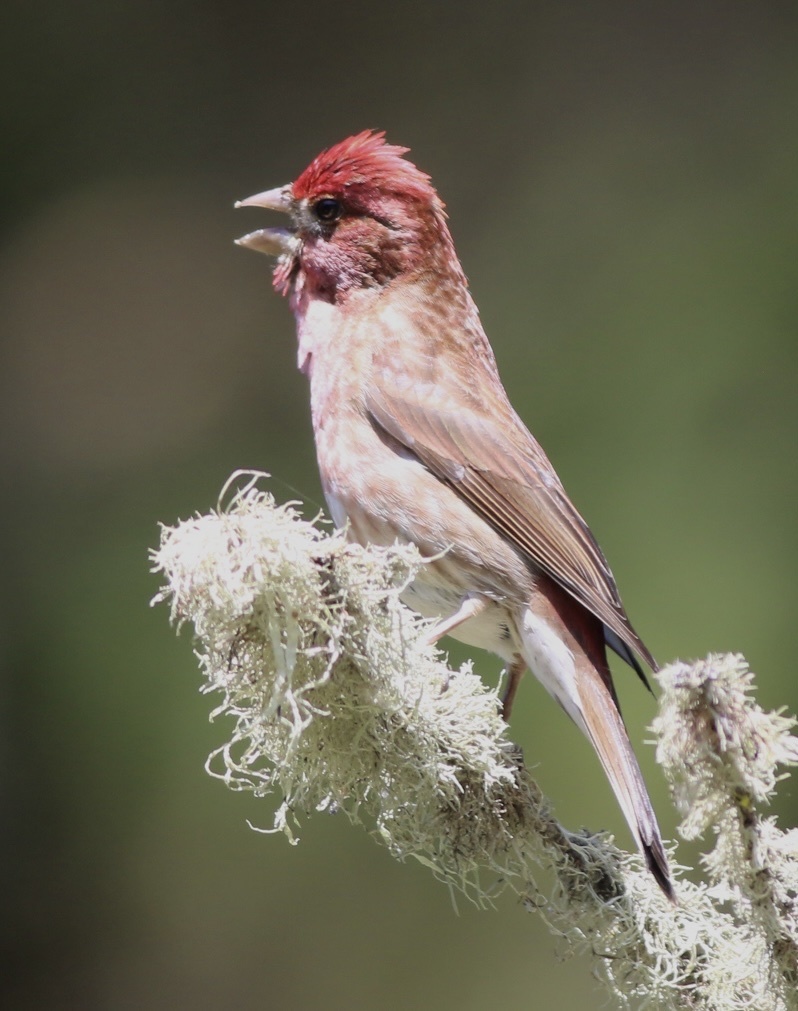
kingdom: Animalia
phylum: Chordata
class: Aves
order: Passeriformes
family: Fringillidae
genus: Haemorhous
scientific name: Haemorhous purpureus
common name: Purple finch
